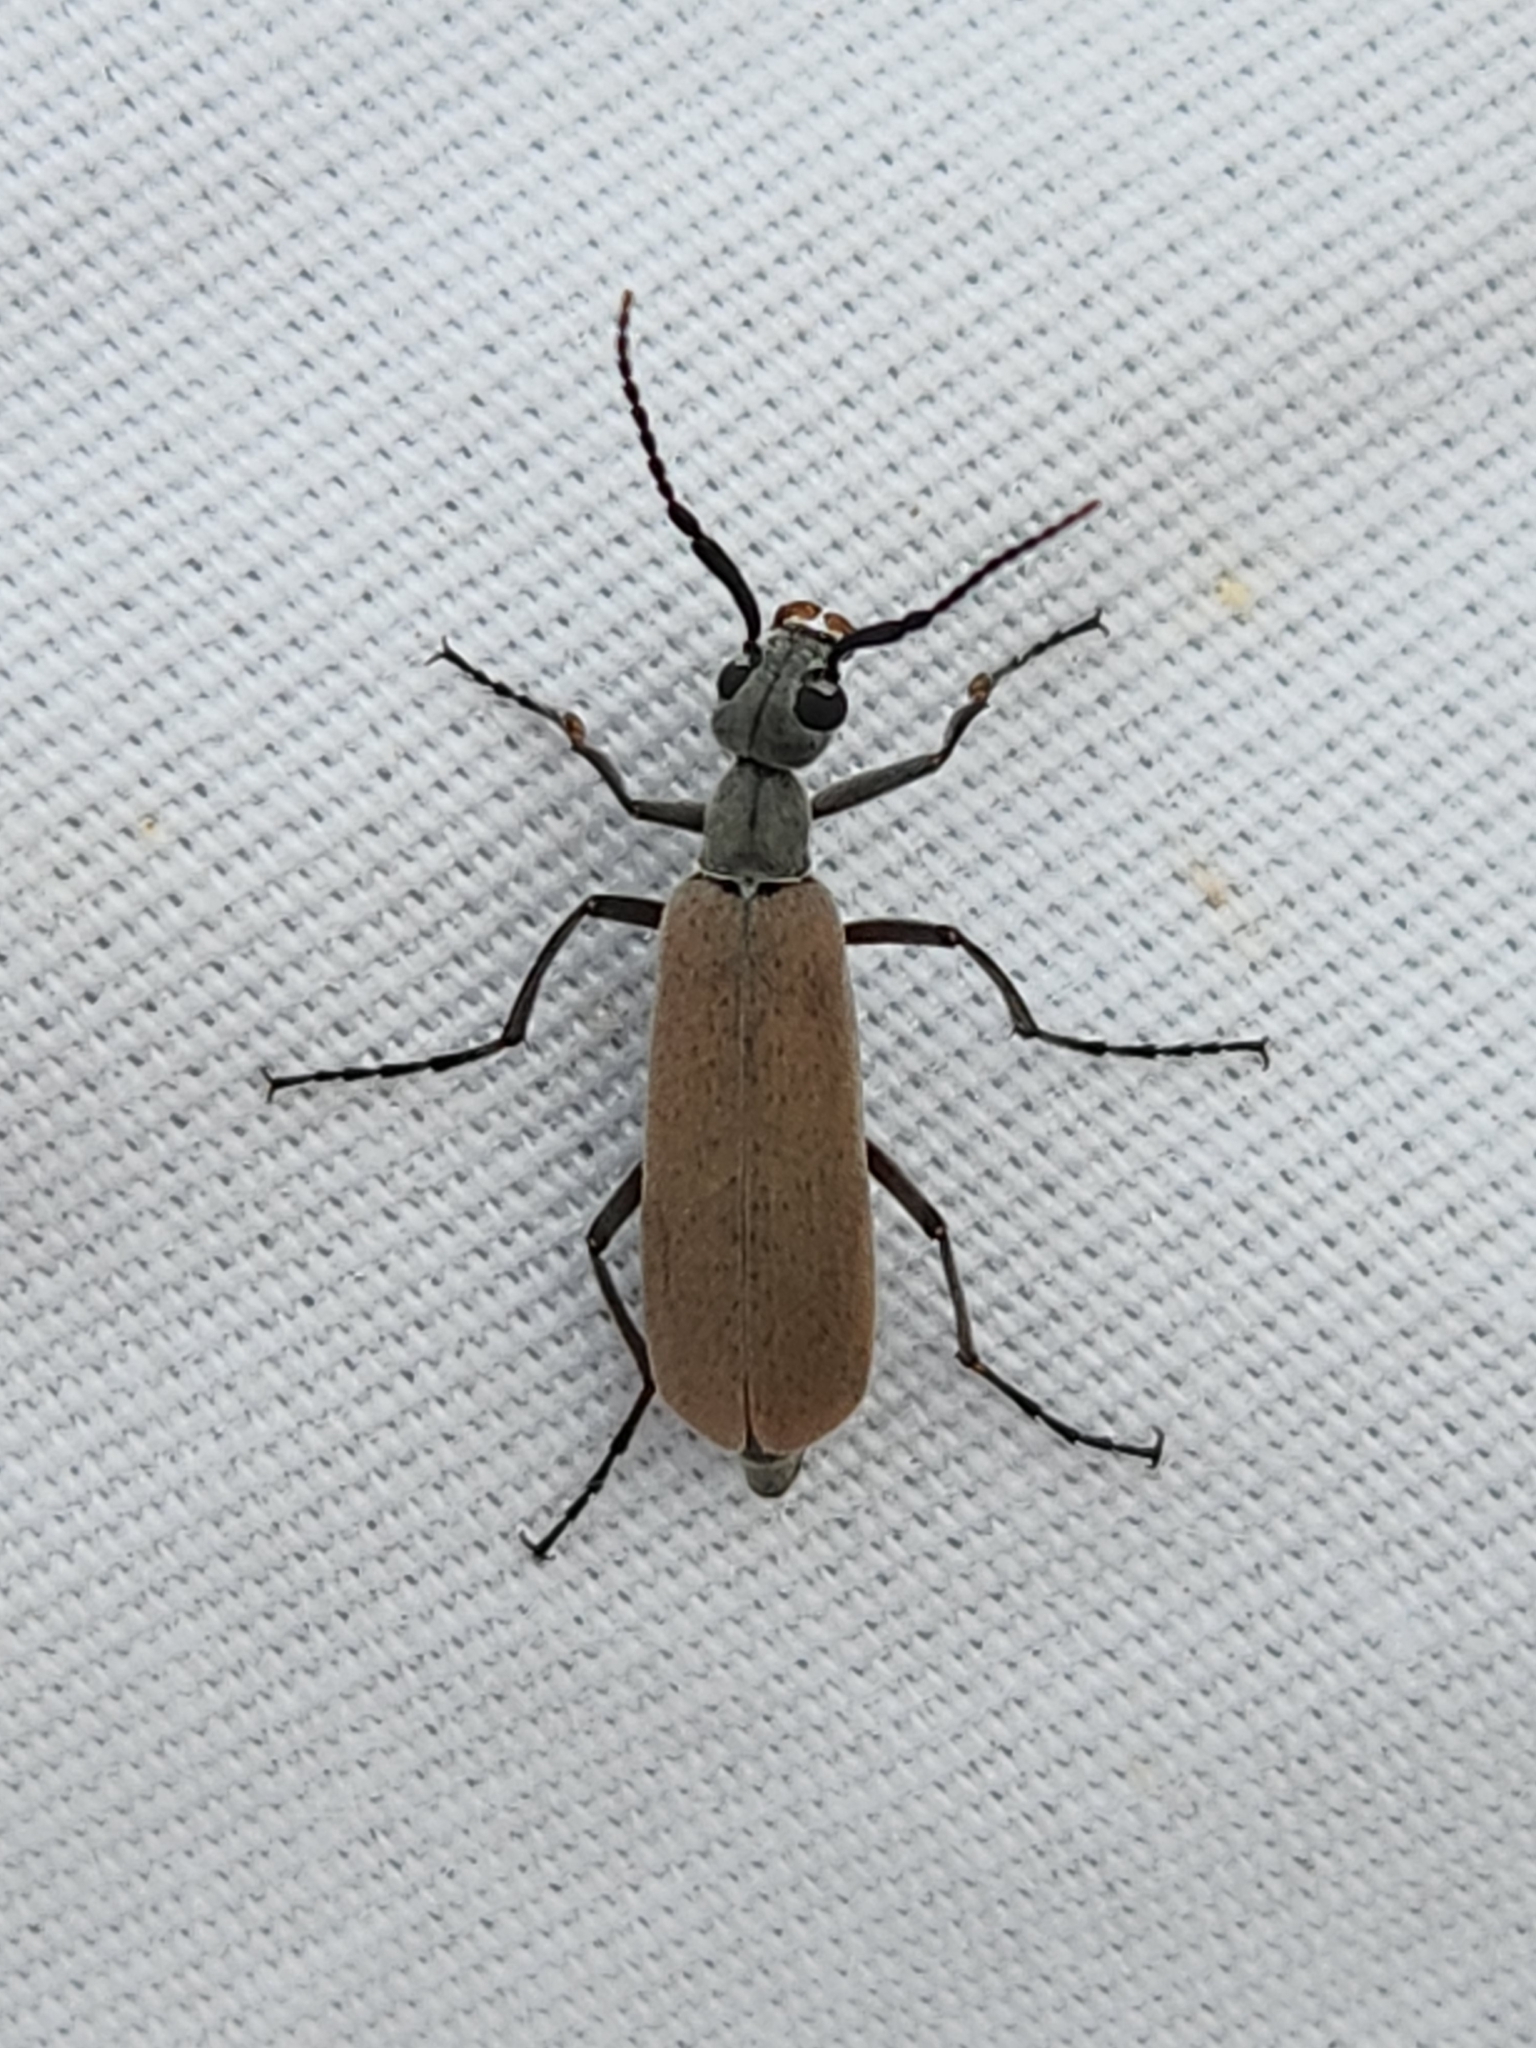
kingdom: Animalia
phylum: Arthropoda
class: Insecta
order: Coleoptera
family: Meloidae
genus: Epicauta
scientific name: Epicauta polingi
